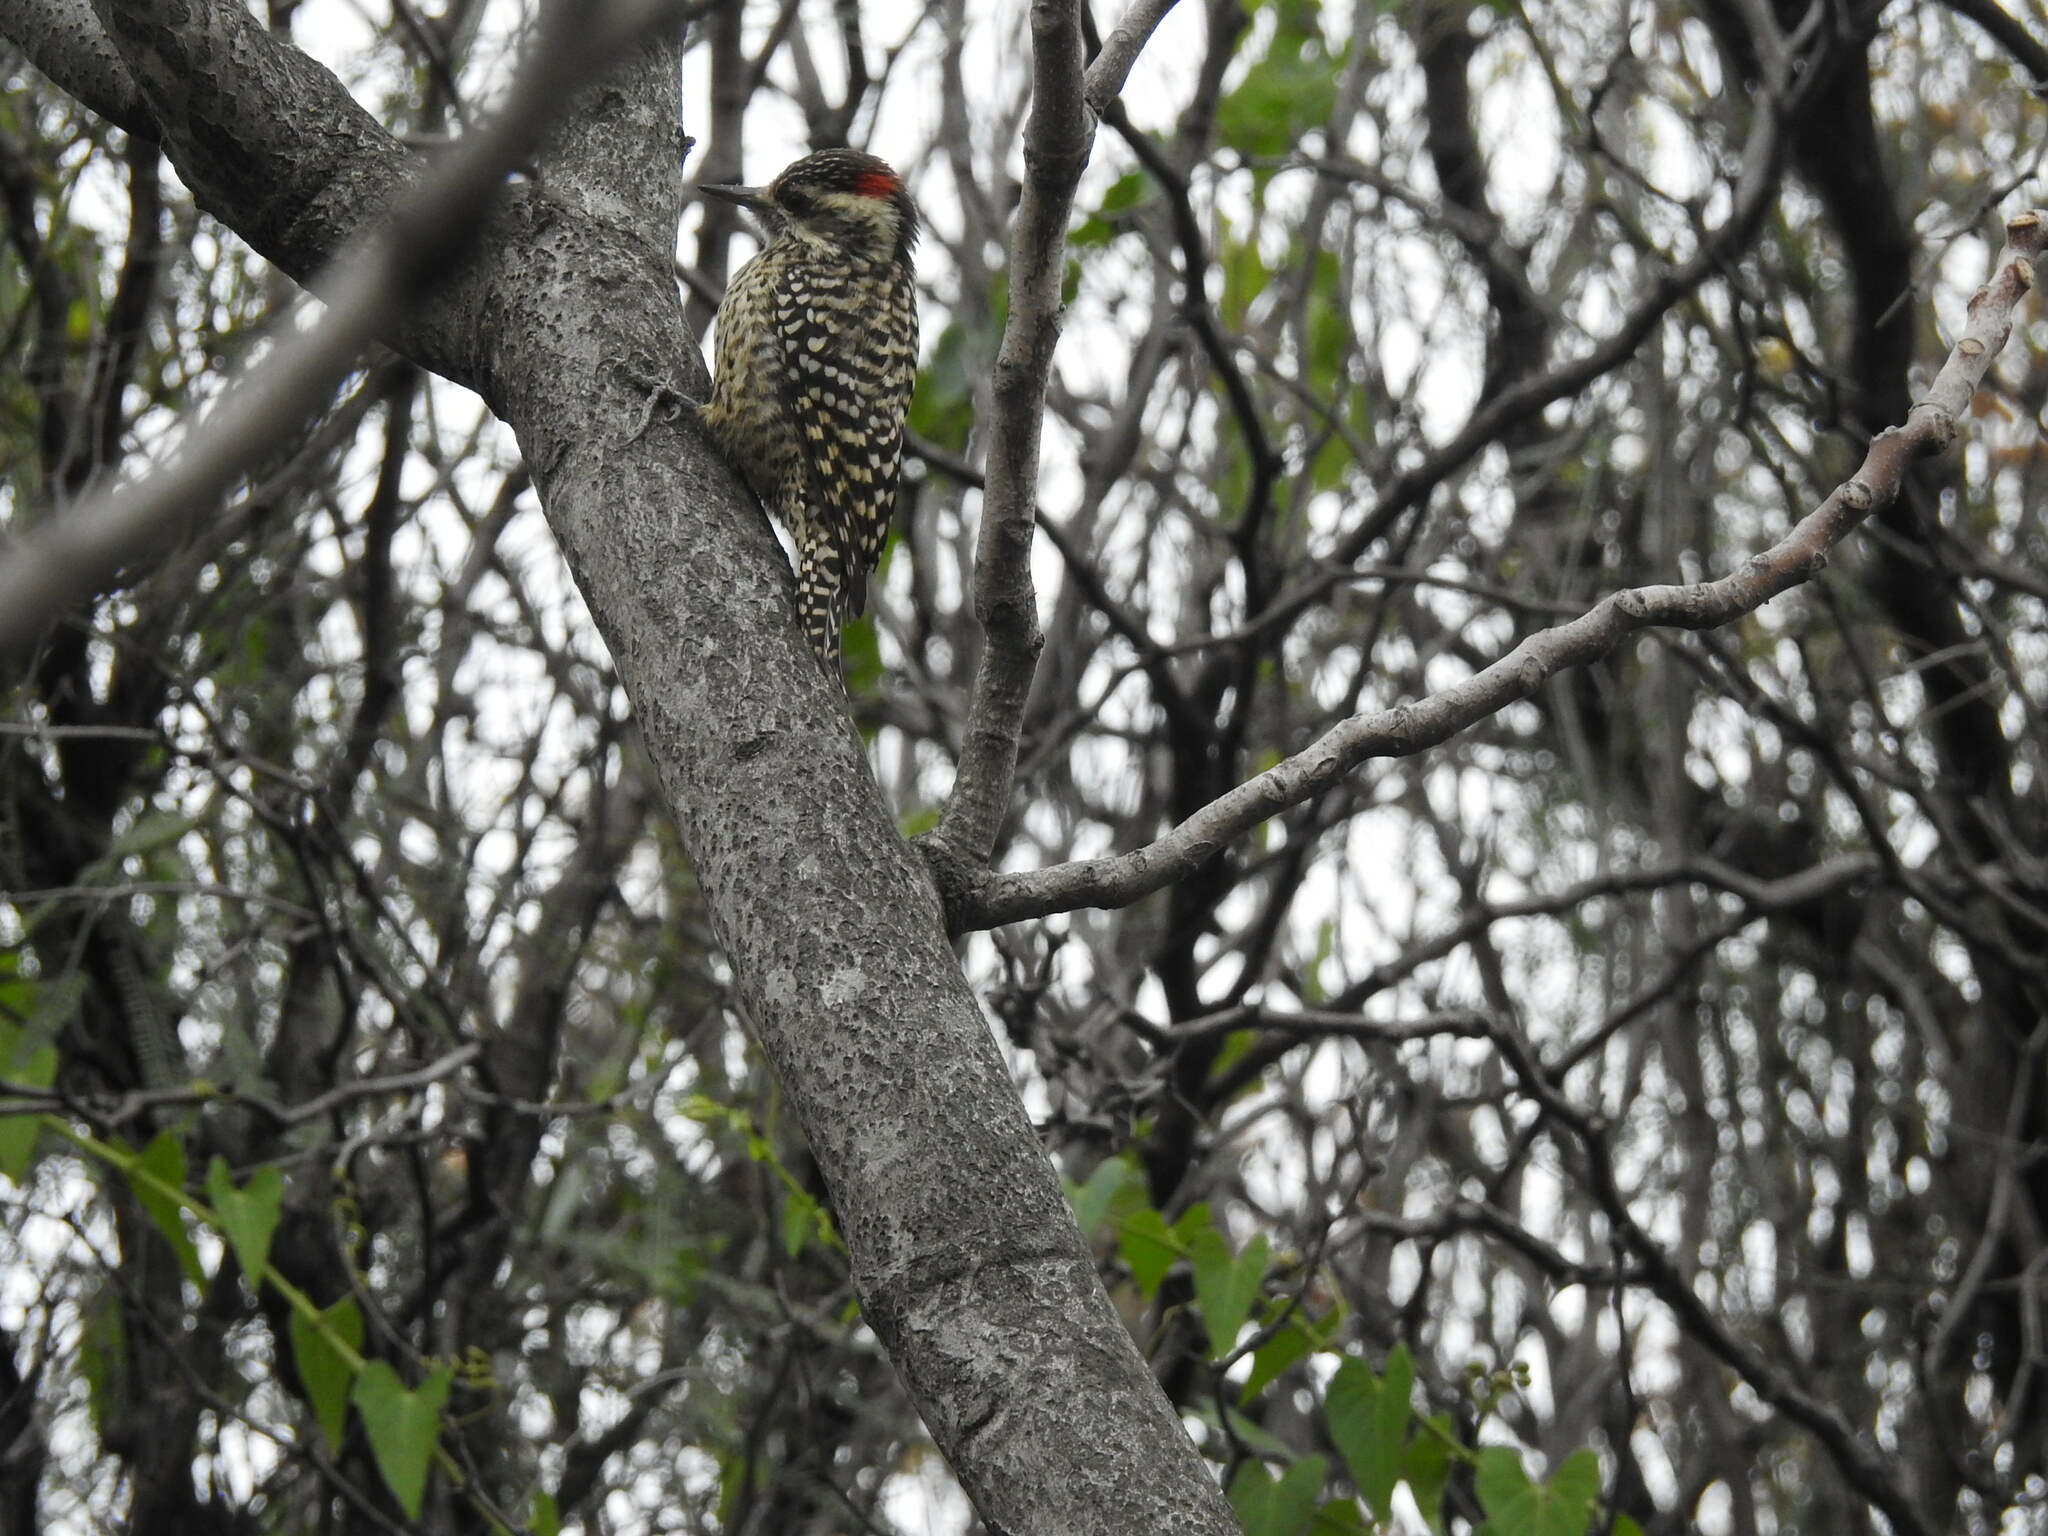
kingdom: Animalia
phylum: Chordata
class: Aves
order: Piciformes
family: Picidae
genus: Veniliornis
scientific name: Veniliornis mixtus
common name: Checkered woodpecker
